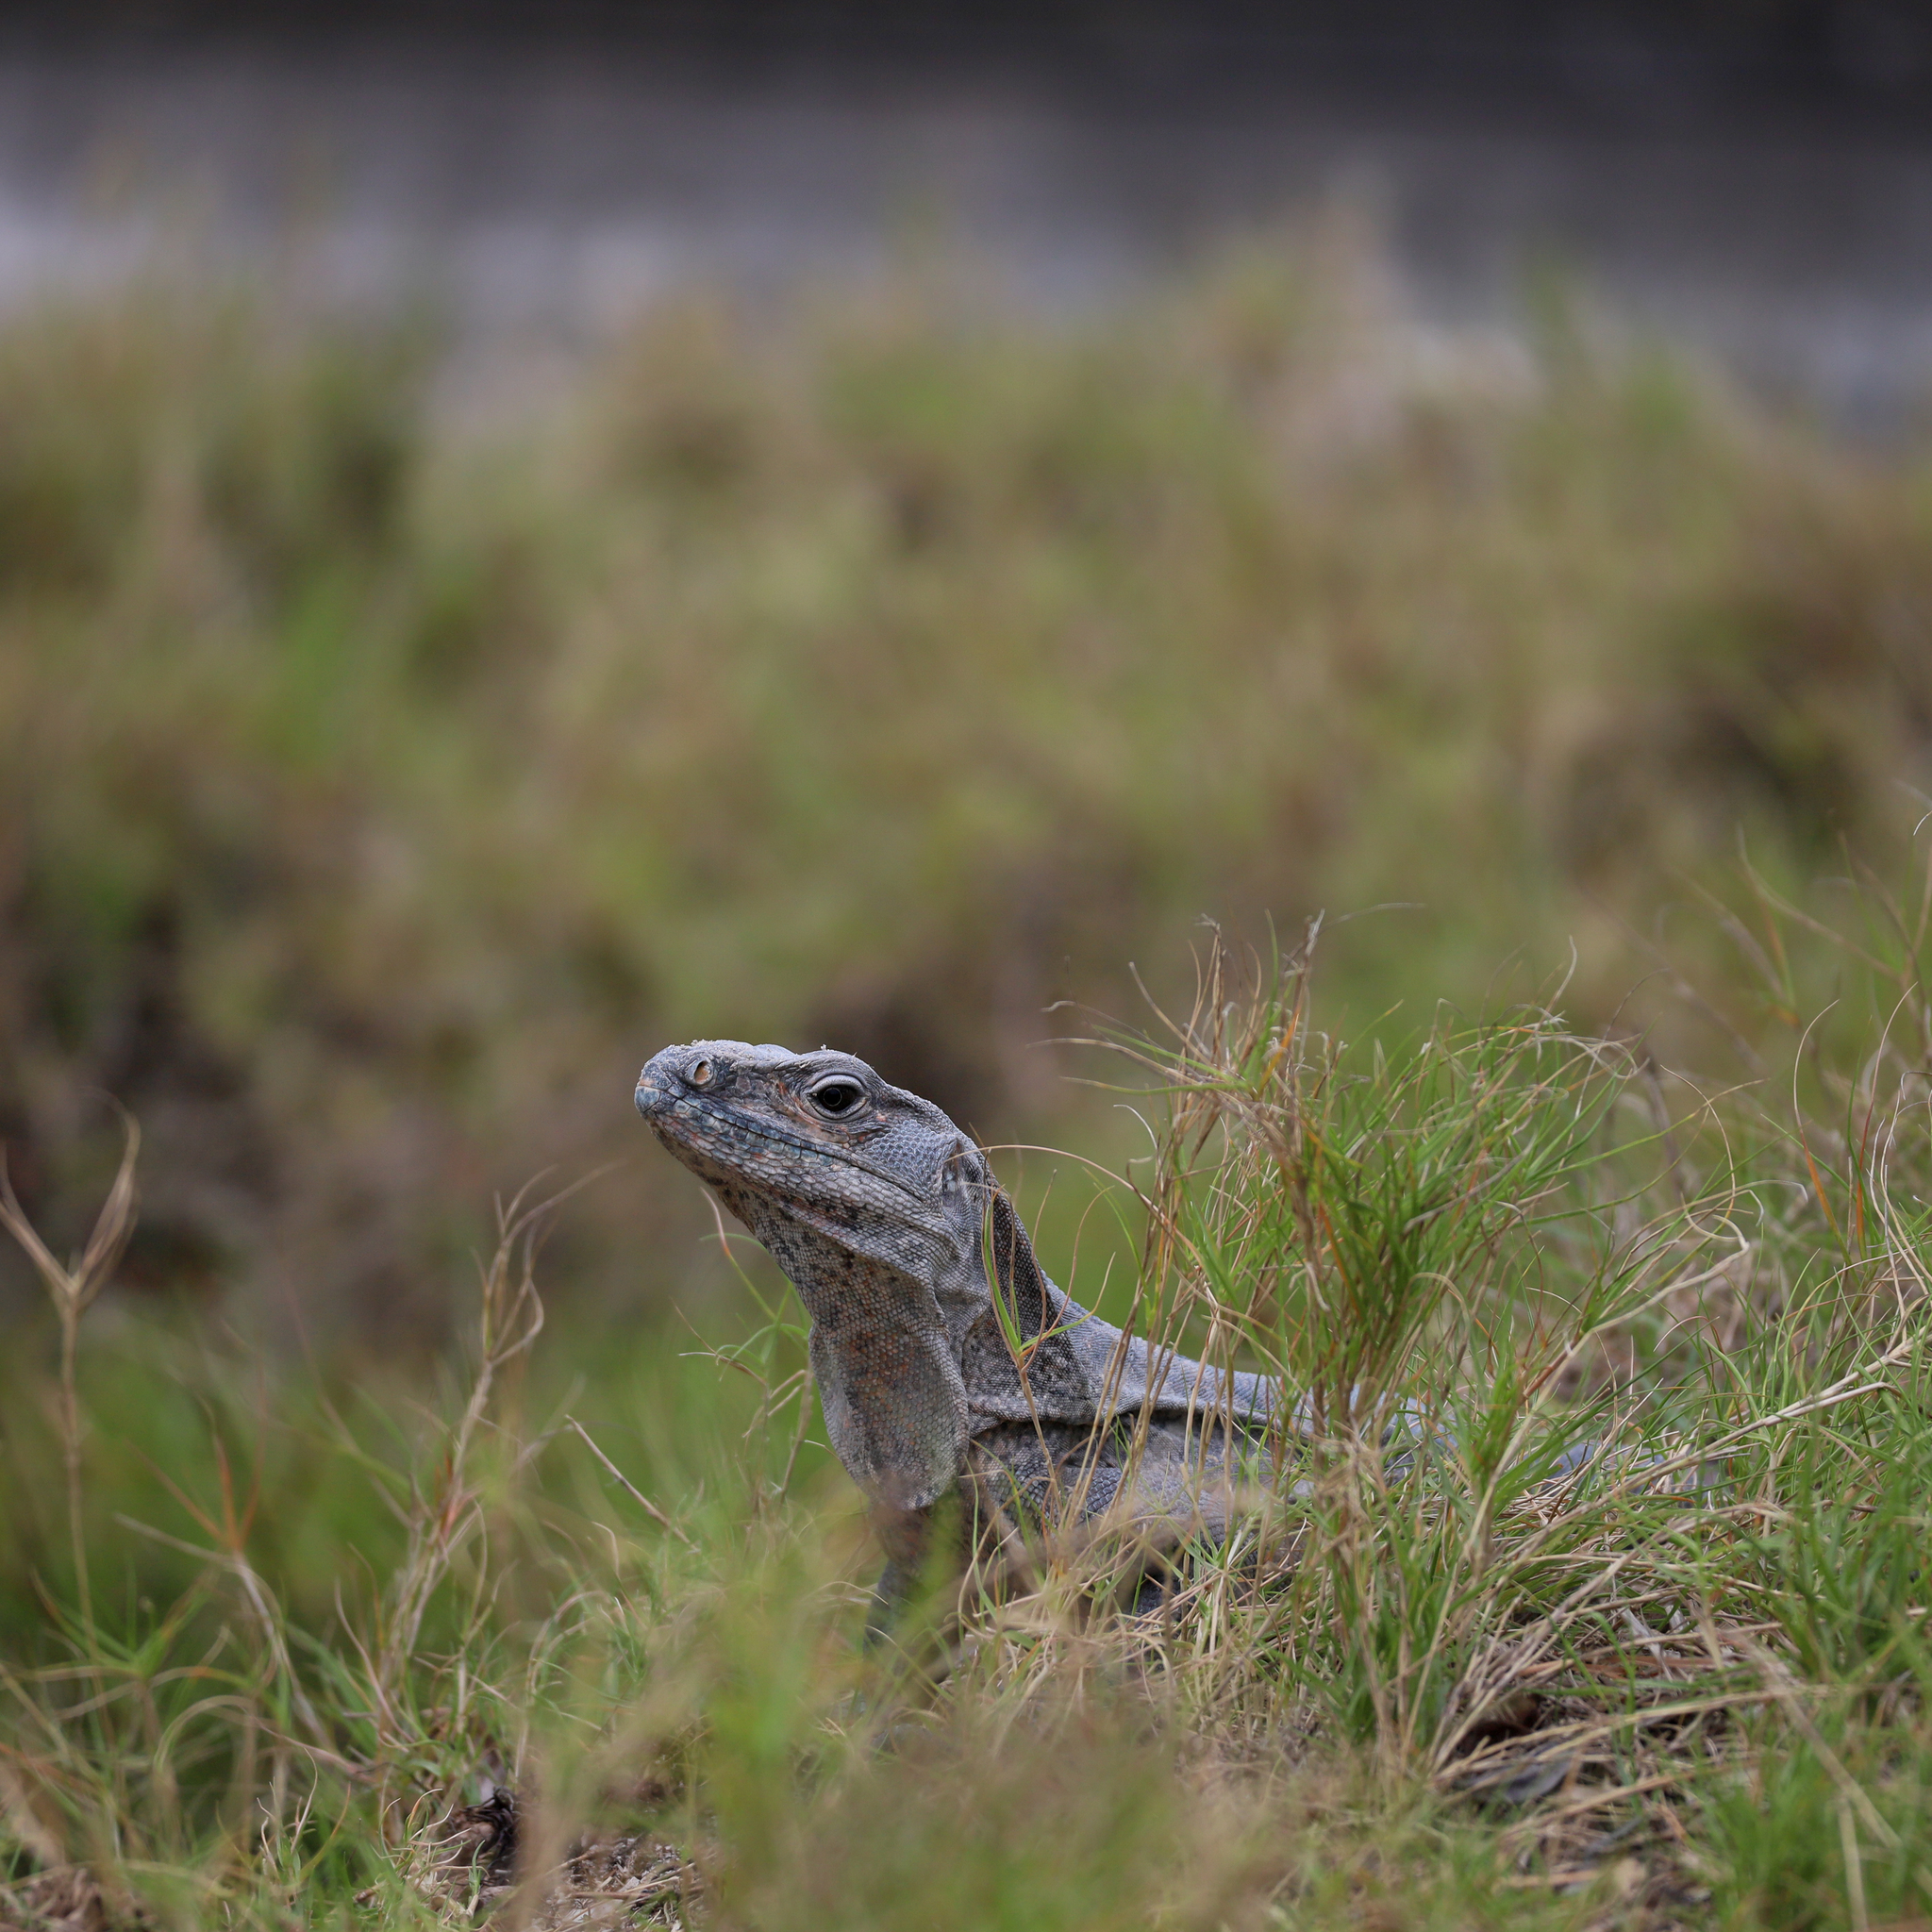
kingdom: Animalia
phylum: Chordata
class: Squamata
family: Iguanidae
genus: Ctenosaura
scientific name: Ctenosaura similis
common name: Black spiny-tailed iguana
